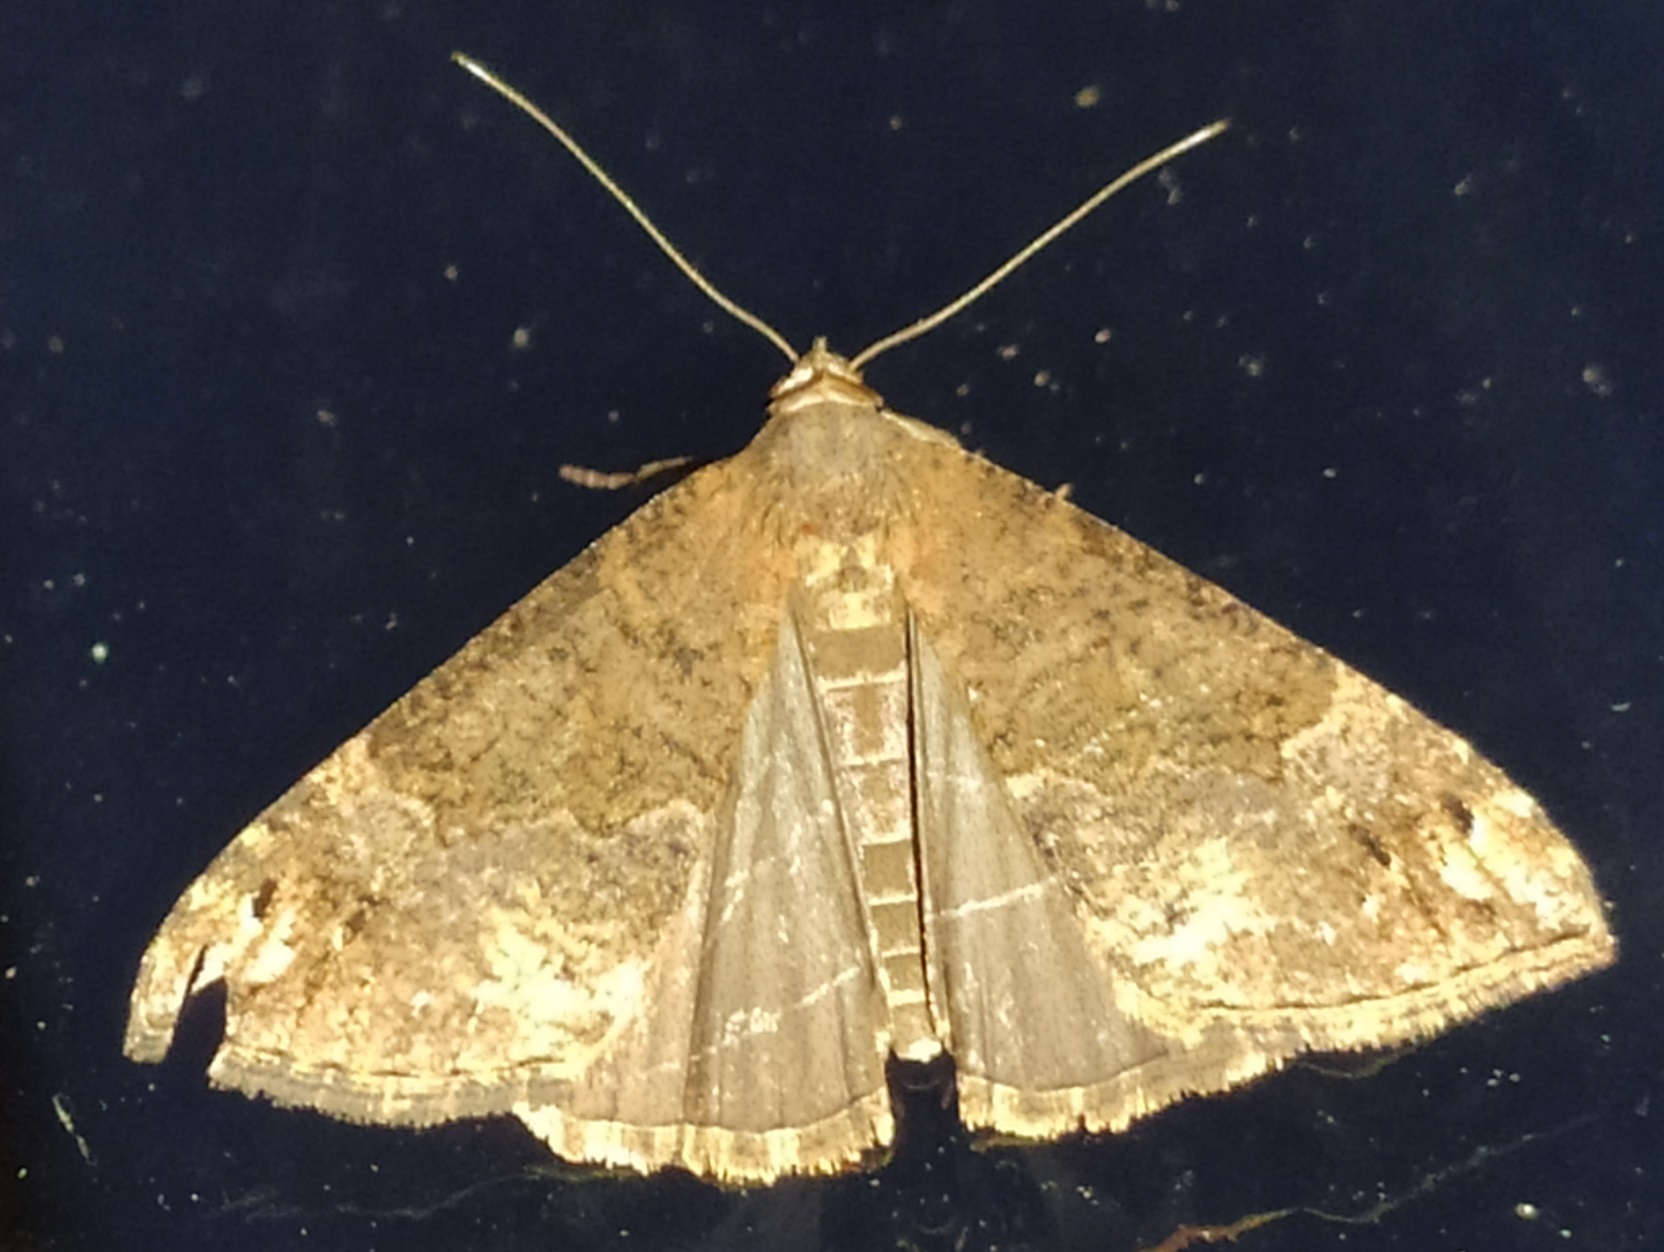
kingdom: Animalia
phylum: Arthropoda
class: Insecta
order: Lepidoptera
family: Erebidae
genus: Hypena
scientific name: Hypena obsitalis
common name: Bloxworth snout
